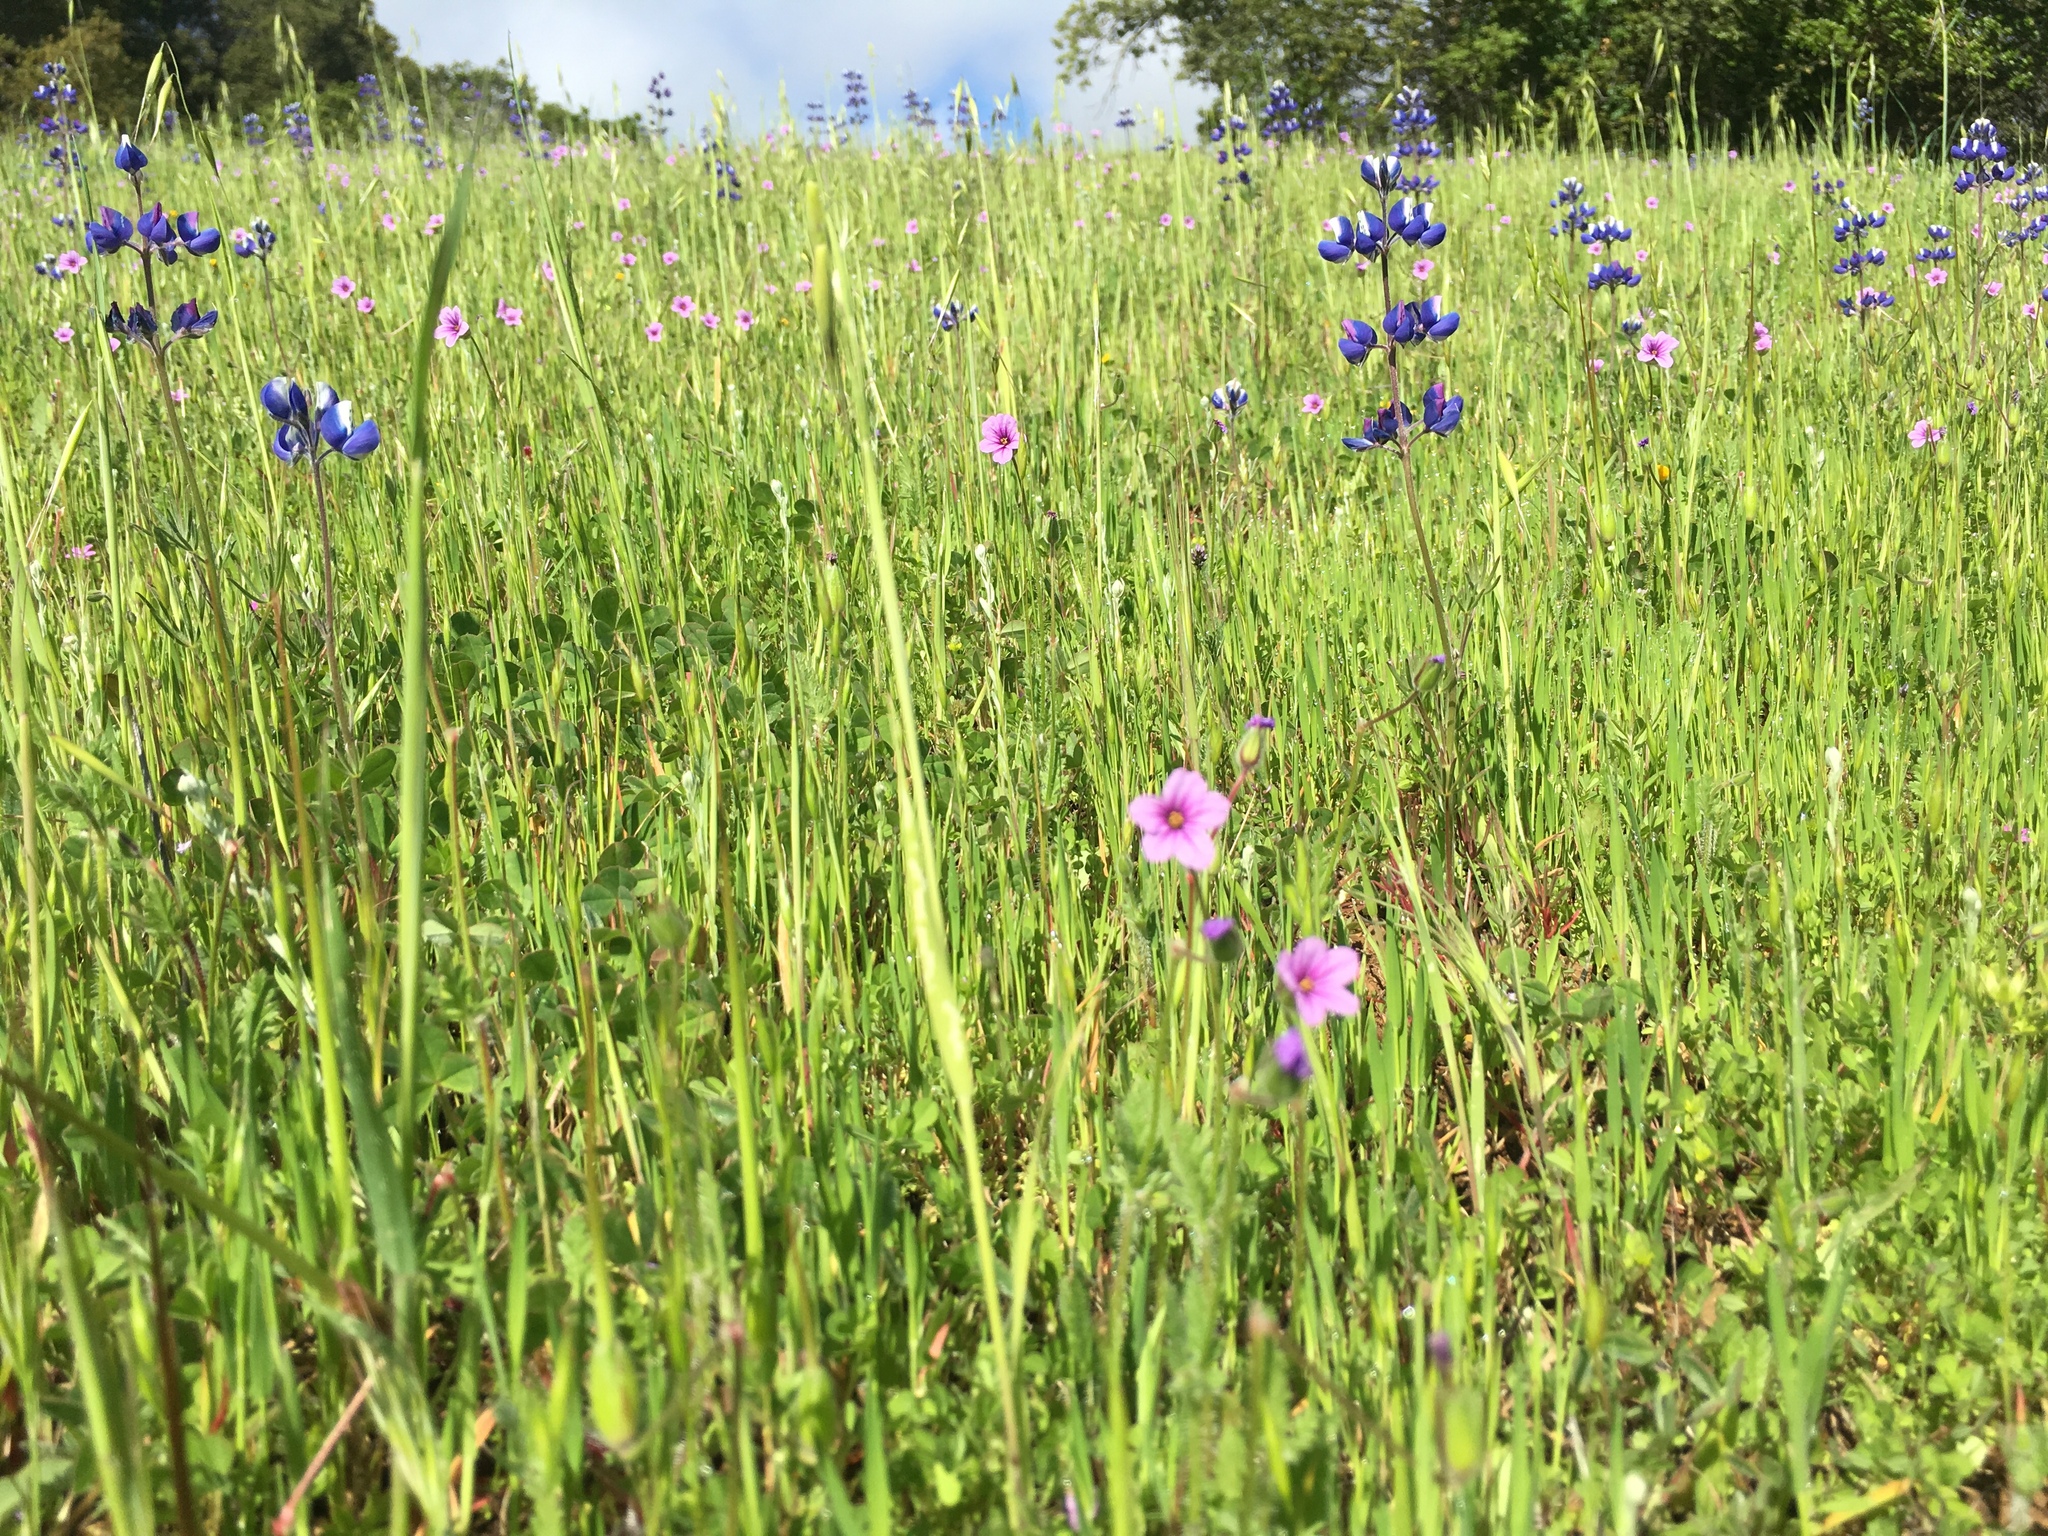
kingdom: Plantae
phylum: Tracheophyta
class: Magnoliopsida
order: Geraniales
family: Geraniaceae
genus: Erodium
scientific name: Erodium botrys
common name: Mediterranean stork's-bill
